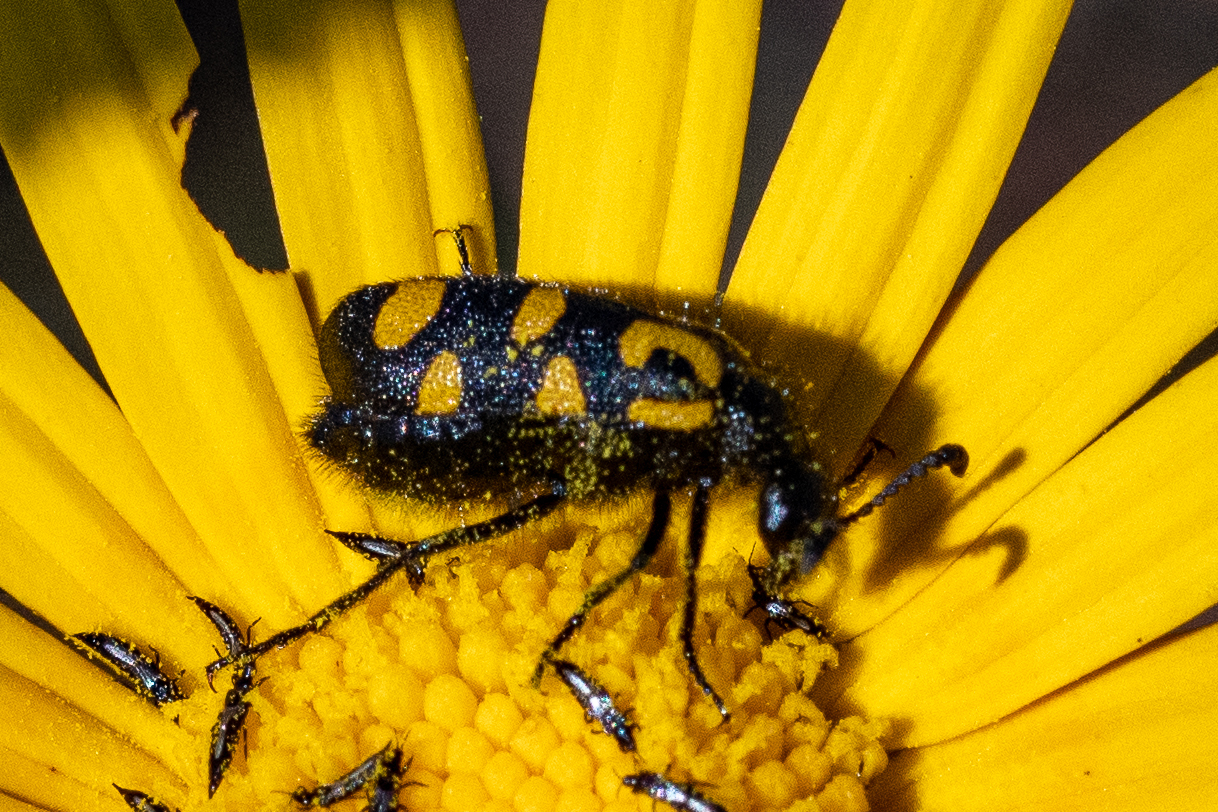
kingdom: Animalia
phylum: Arthropoda
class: Insecta
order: Coleoptera
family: Meloidae
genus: Ceroctis
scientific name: Ceroctis capensis
